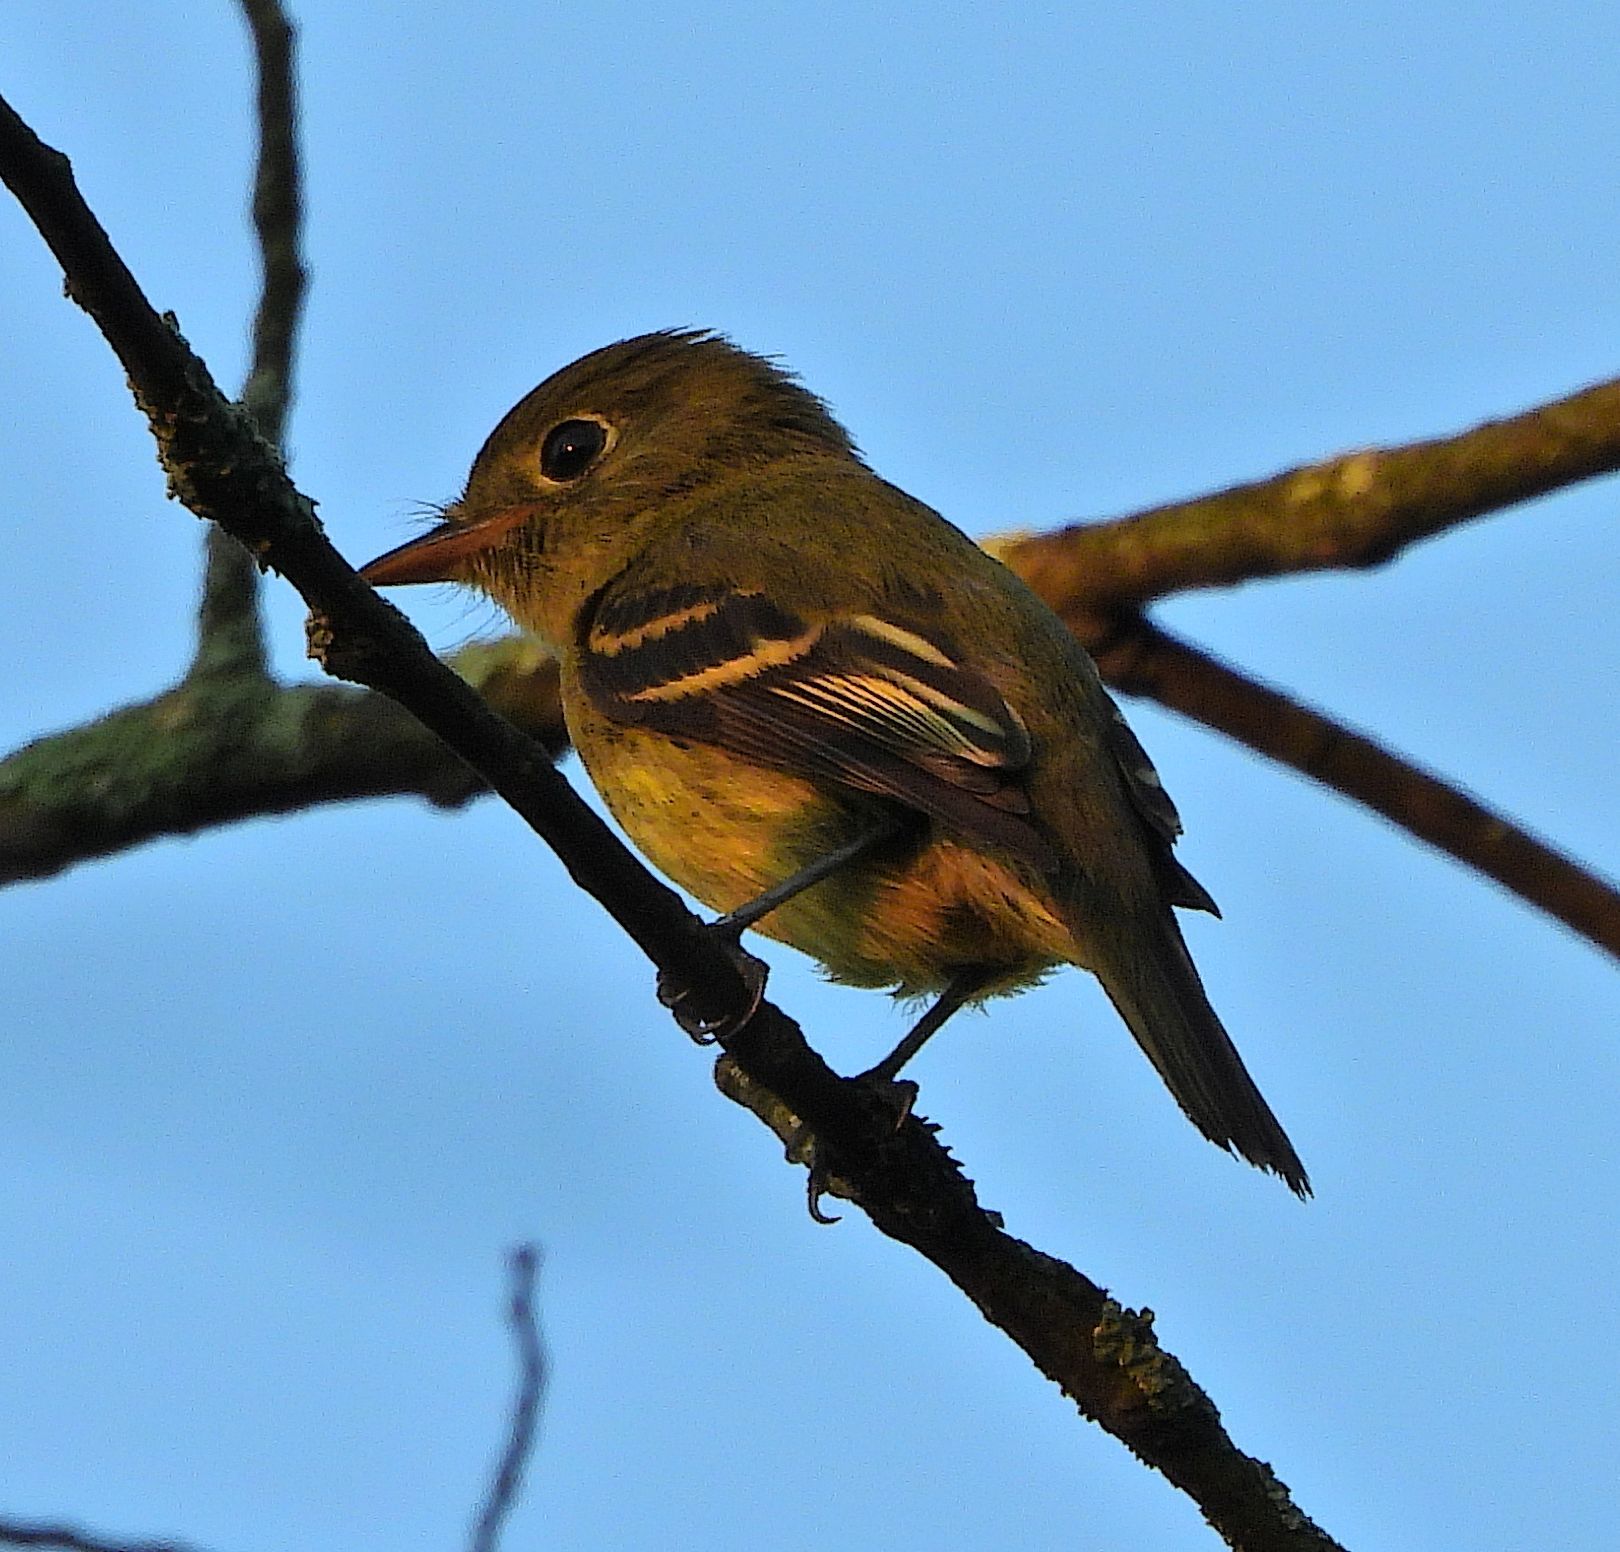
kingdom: Animalia
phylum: Chordata
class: Aves
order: Passeriformes
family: Tyrannidae
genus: Empidonax
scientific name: Empidonax flaviventris
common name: Yellow-bellied flycatcher
